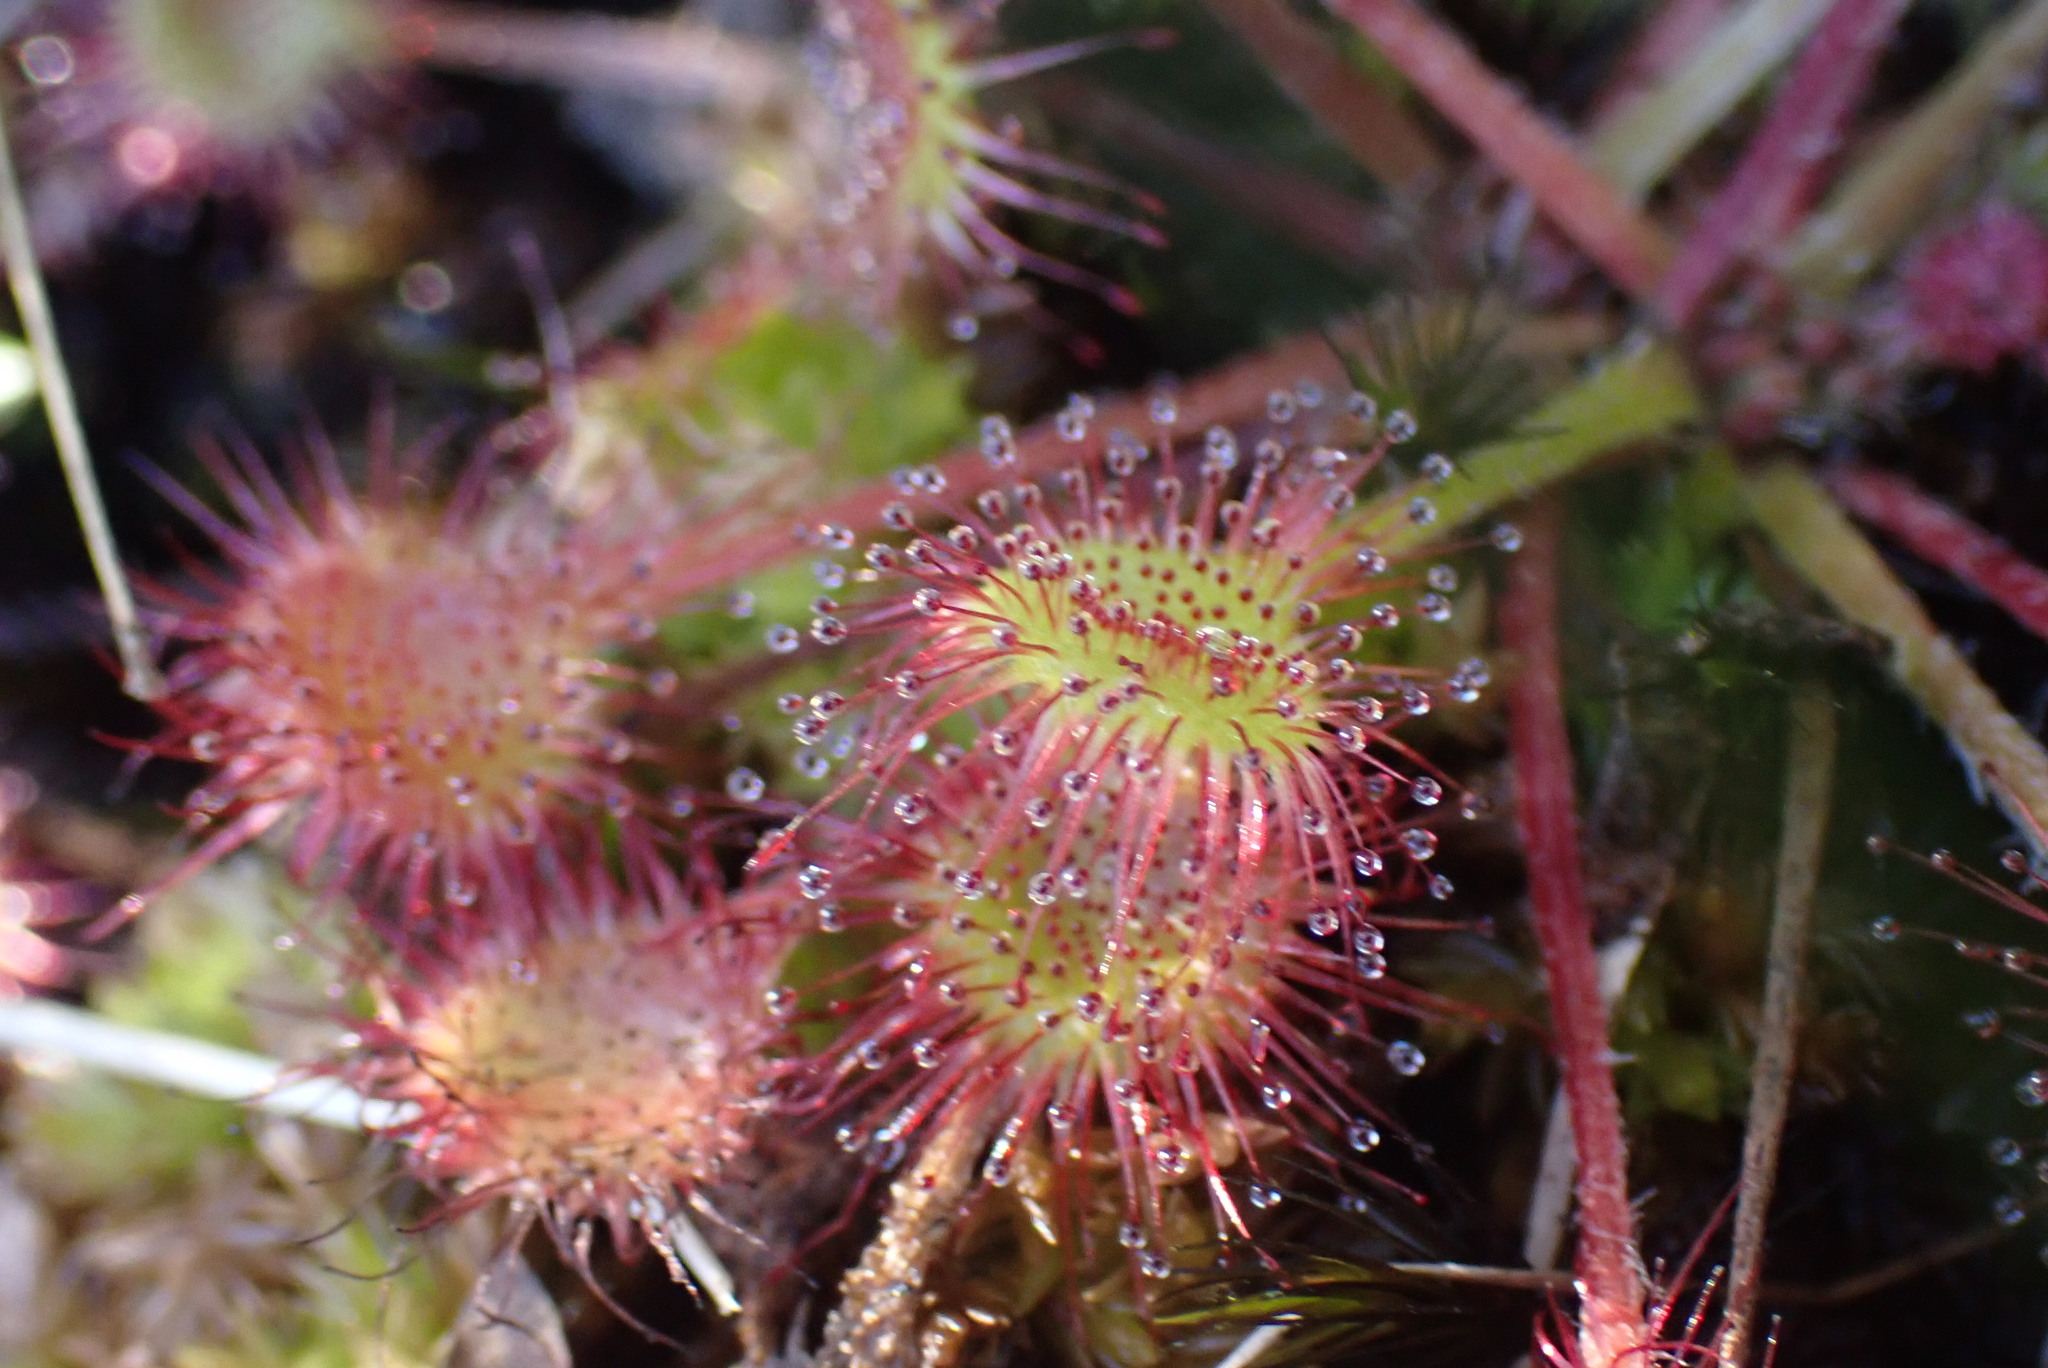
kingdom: Plantae
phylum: Tracheophyta
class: Magnoliopsida
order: Caryophyllales
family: Droseraceae
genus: Drosera
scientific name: Drosera rotundifolia
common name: Round-leaved sundew
